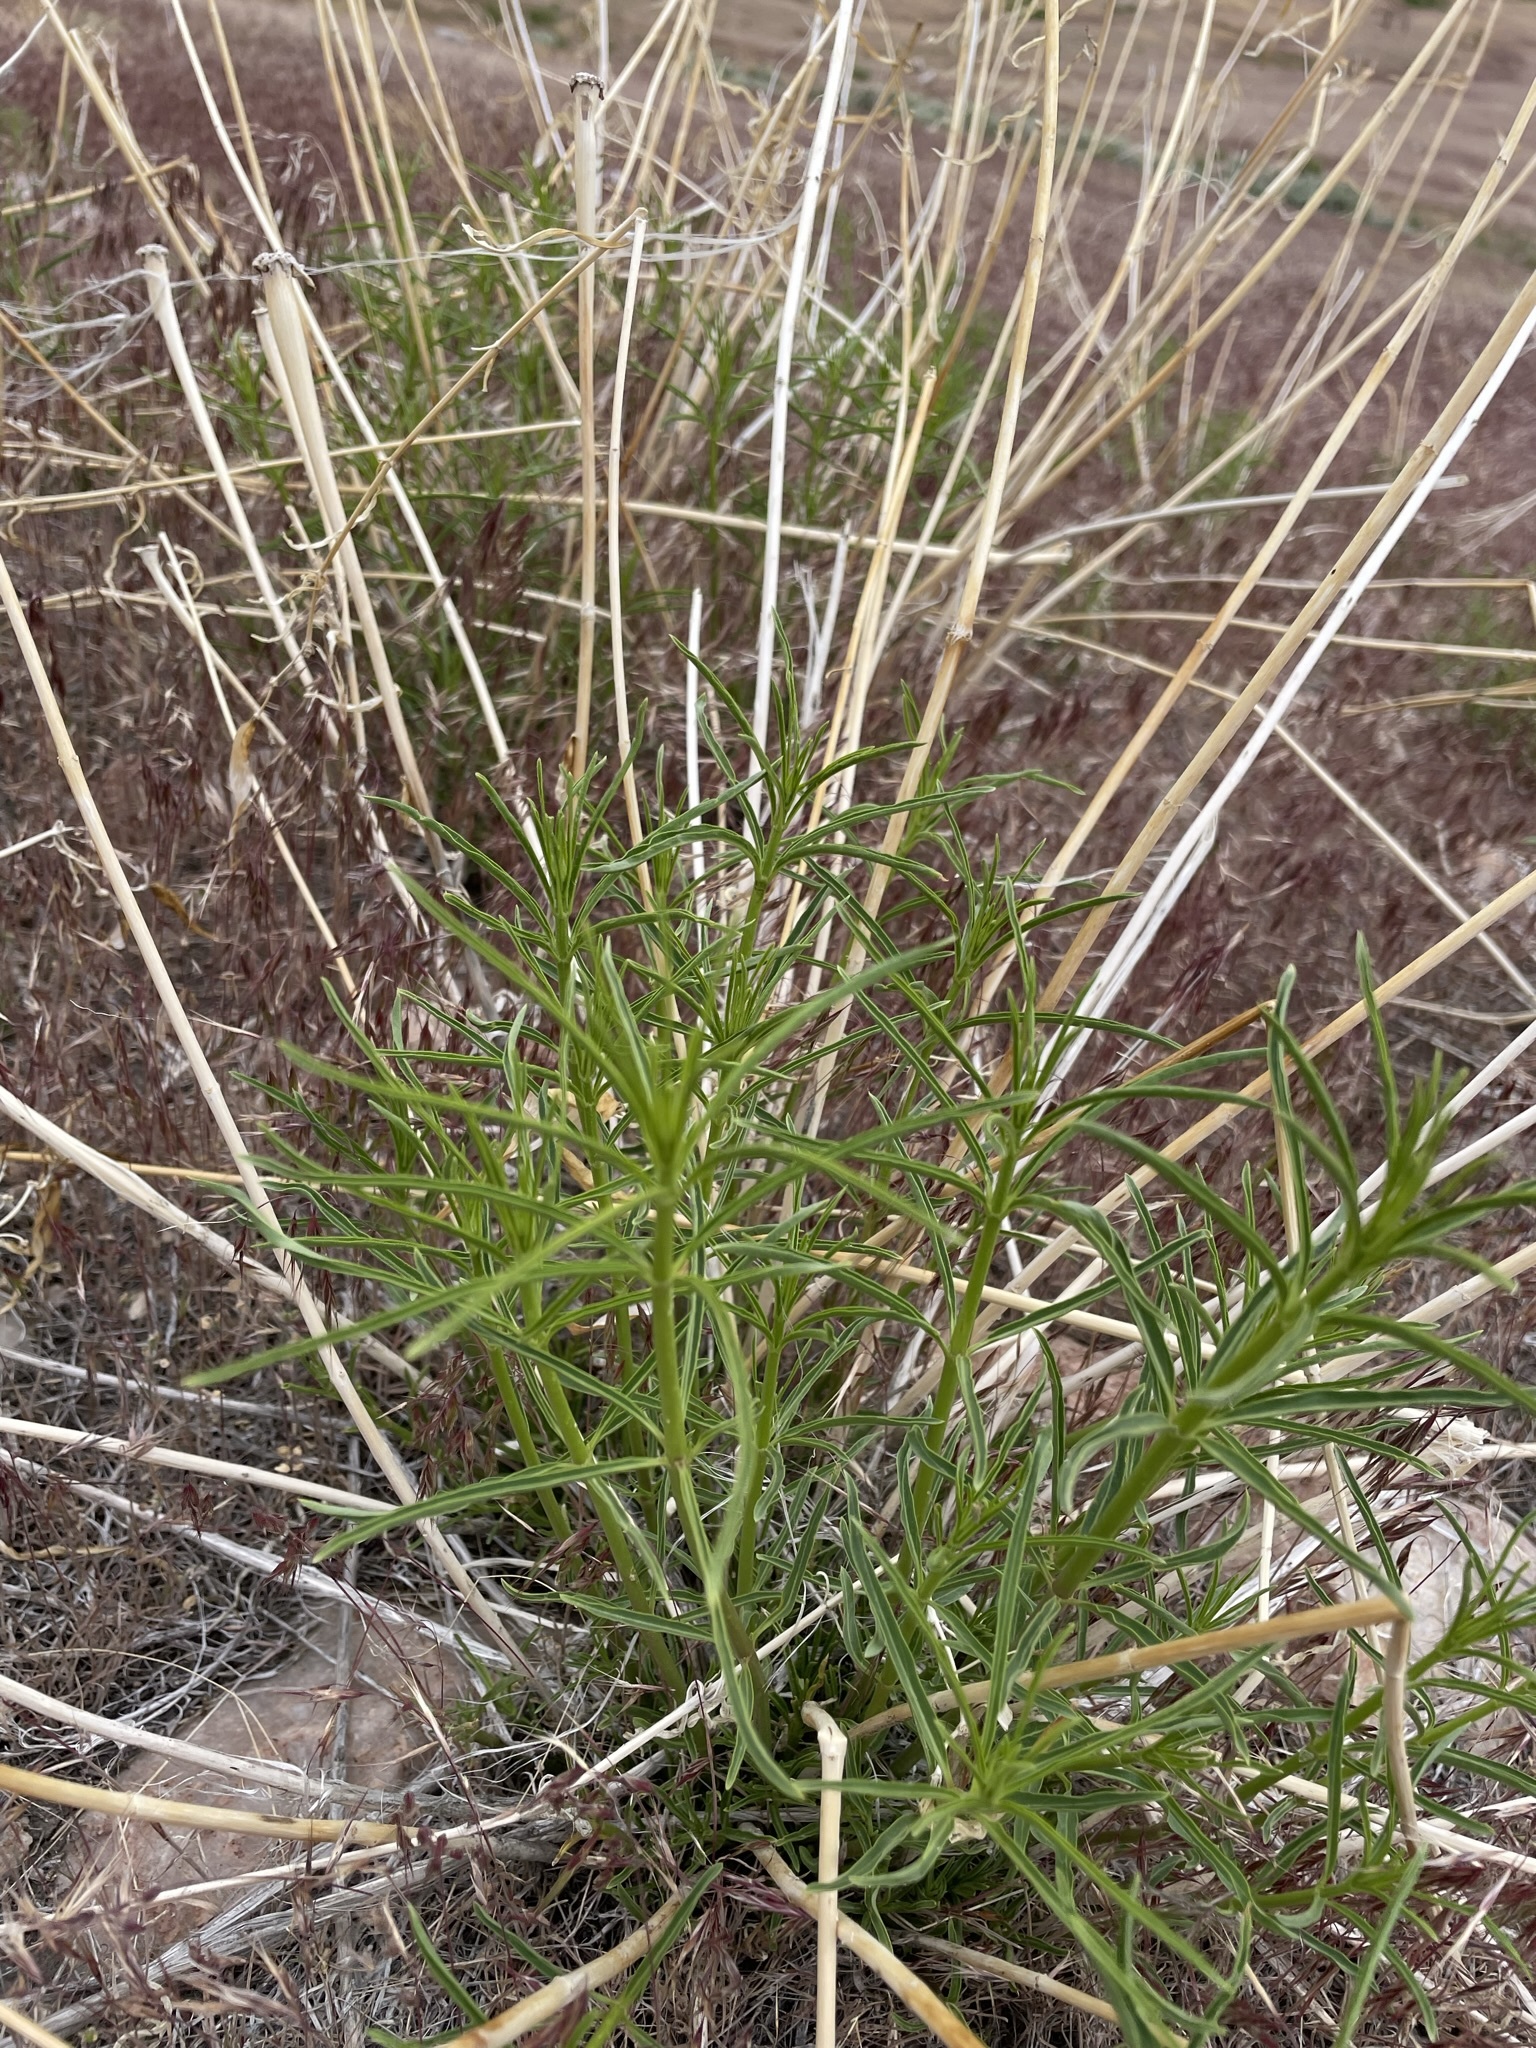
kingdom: Plantae
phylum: Tracheophyta
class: Magnoliopsida
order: Gentianales
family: Apocynaceae
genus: Asclepias
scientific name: Asclepias fascicularis
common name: Mexican milkweed
